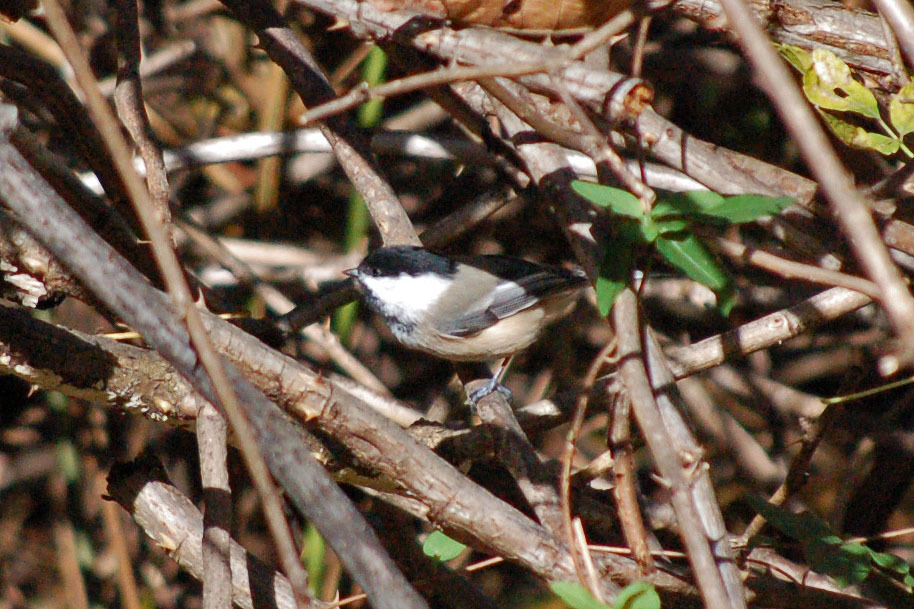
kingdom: Animalia
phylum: Chordata
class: Aves
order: Passeriformes
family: Paridae
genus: Poecile
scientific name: Poecile atricapillus
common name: Black-capped chickadee
